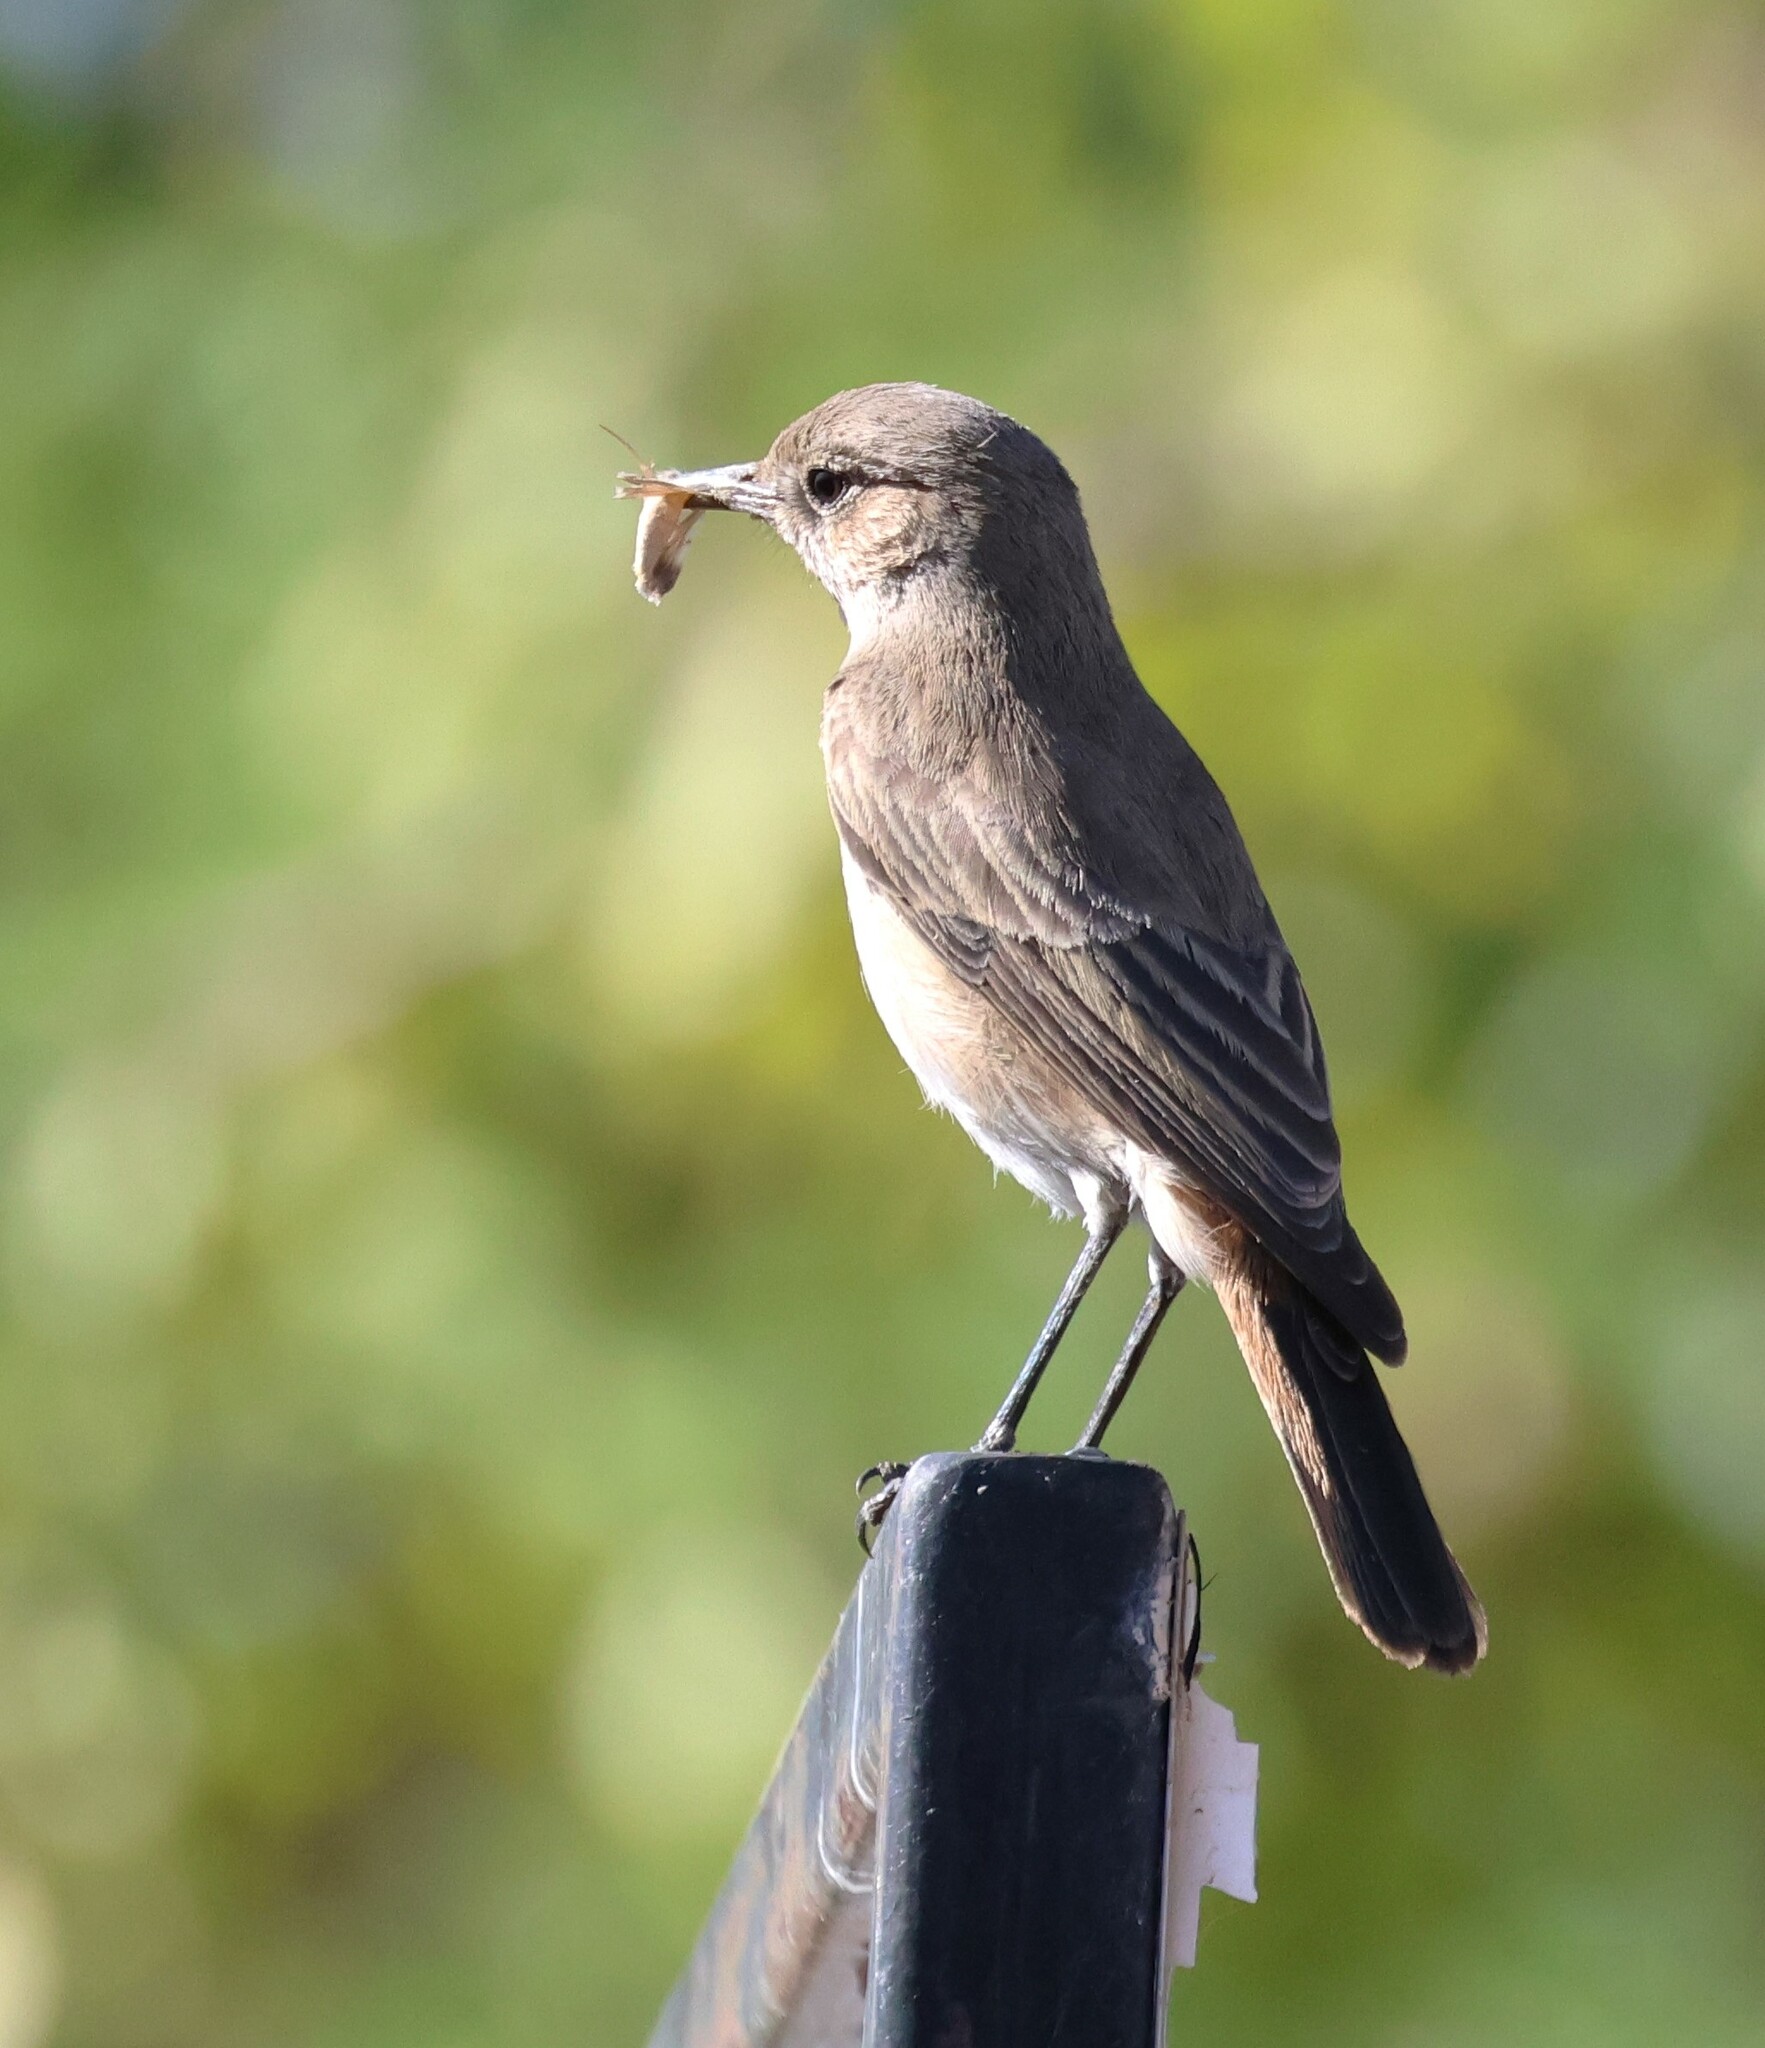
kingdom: Animalia
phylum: Chordata
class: Aves
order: Passeriformes
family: Muscicapidae
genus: Oenanthe
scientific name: Oenanthe familiaris
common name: Familiar chat
